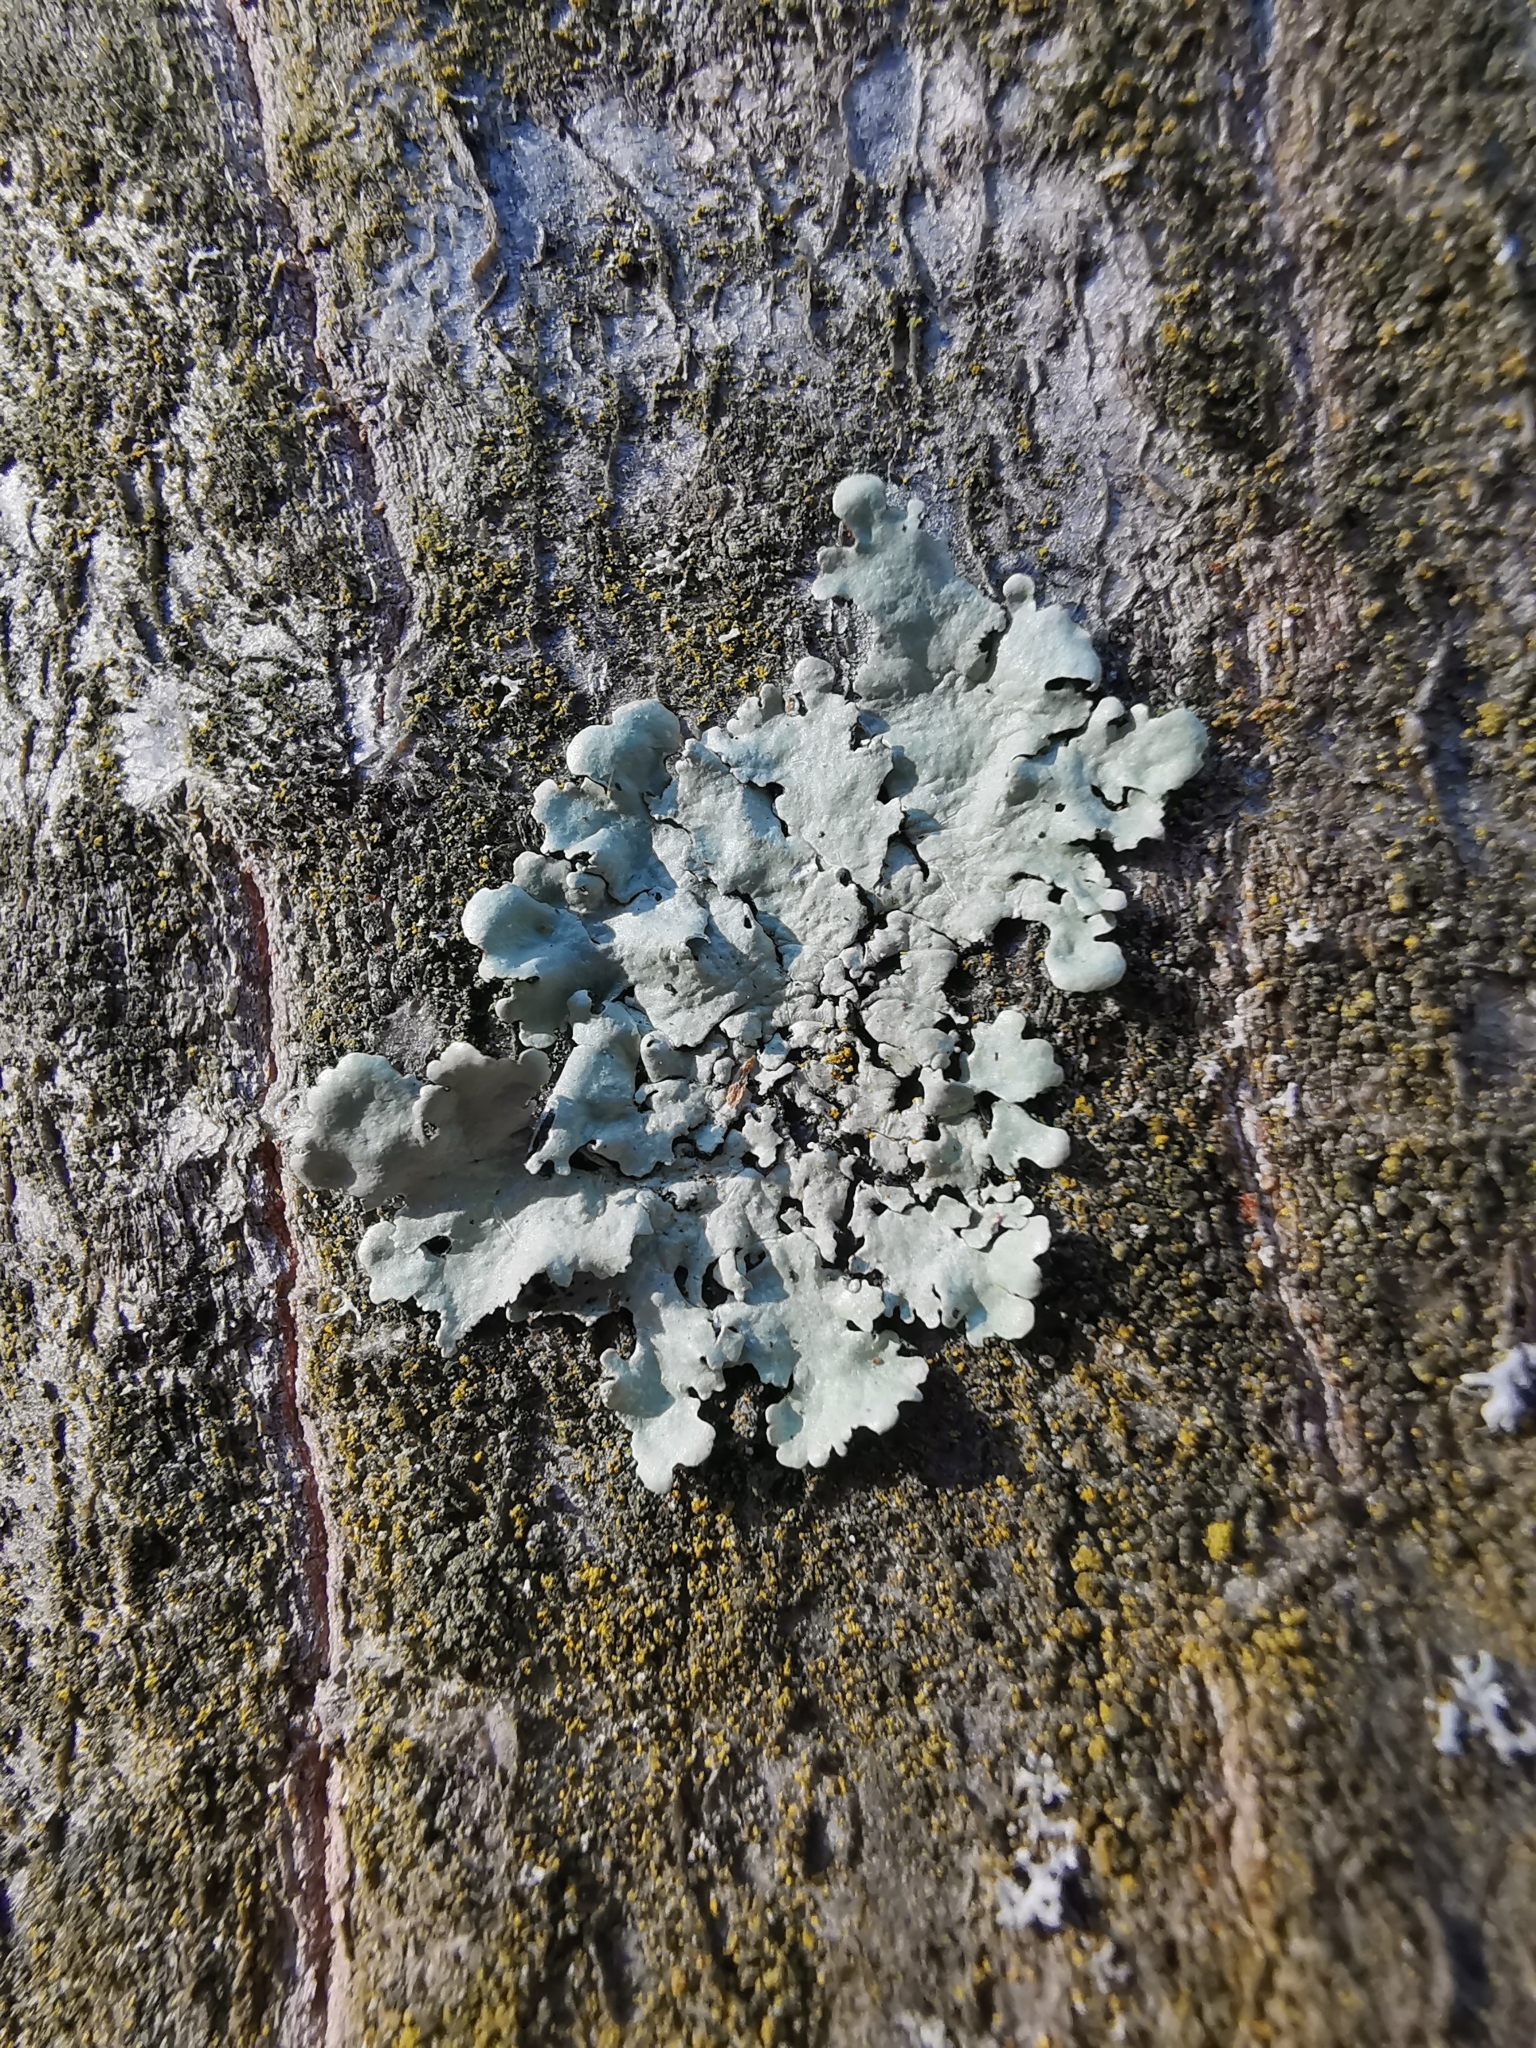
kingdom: Fungi
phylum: Ascomycota
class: Lecanoromycetes
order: Lecanorales
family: Parmeliaceae
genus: Flavoparmelia
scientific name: Flavoparmelia caperata
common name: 40-mile per hour lichen
